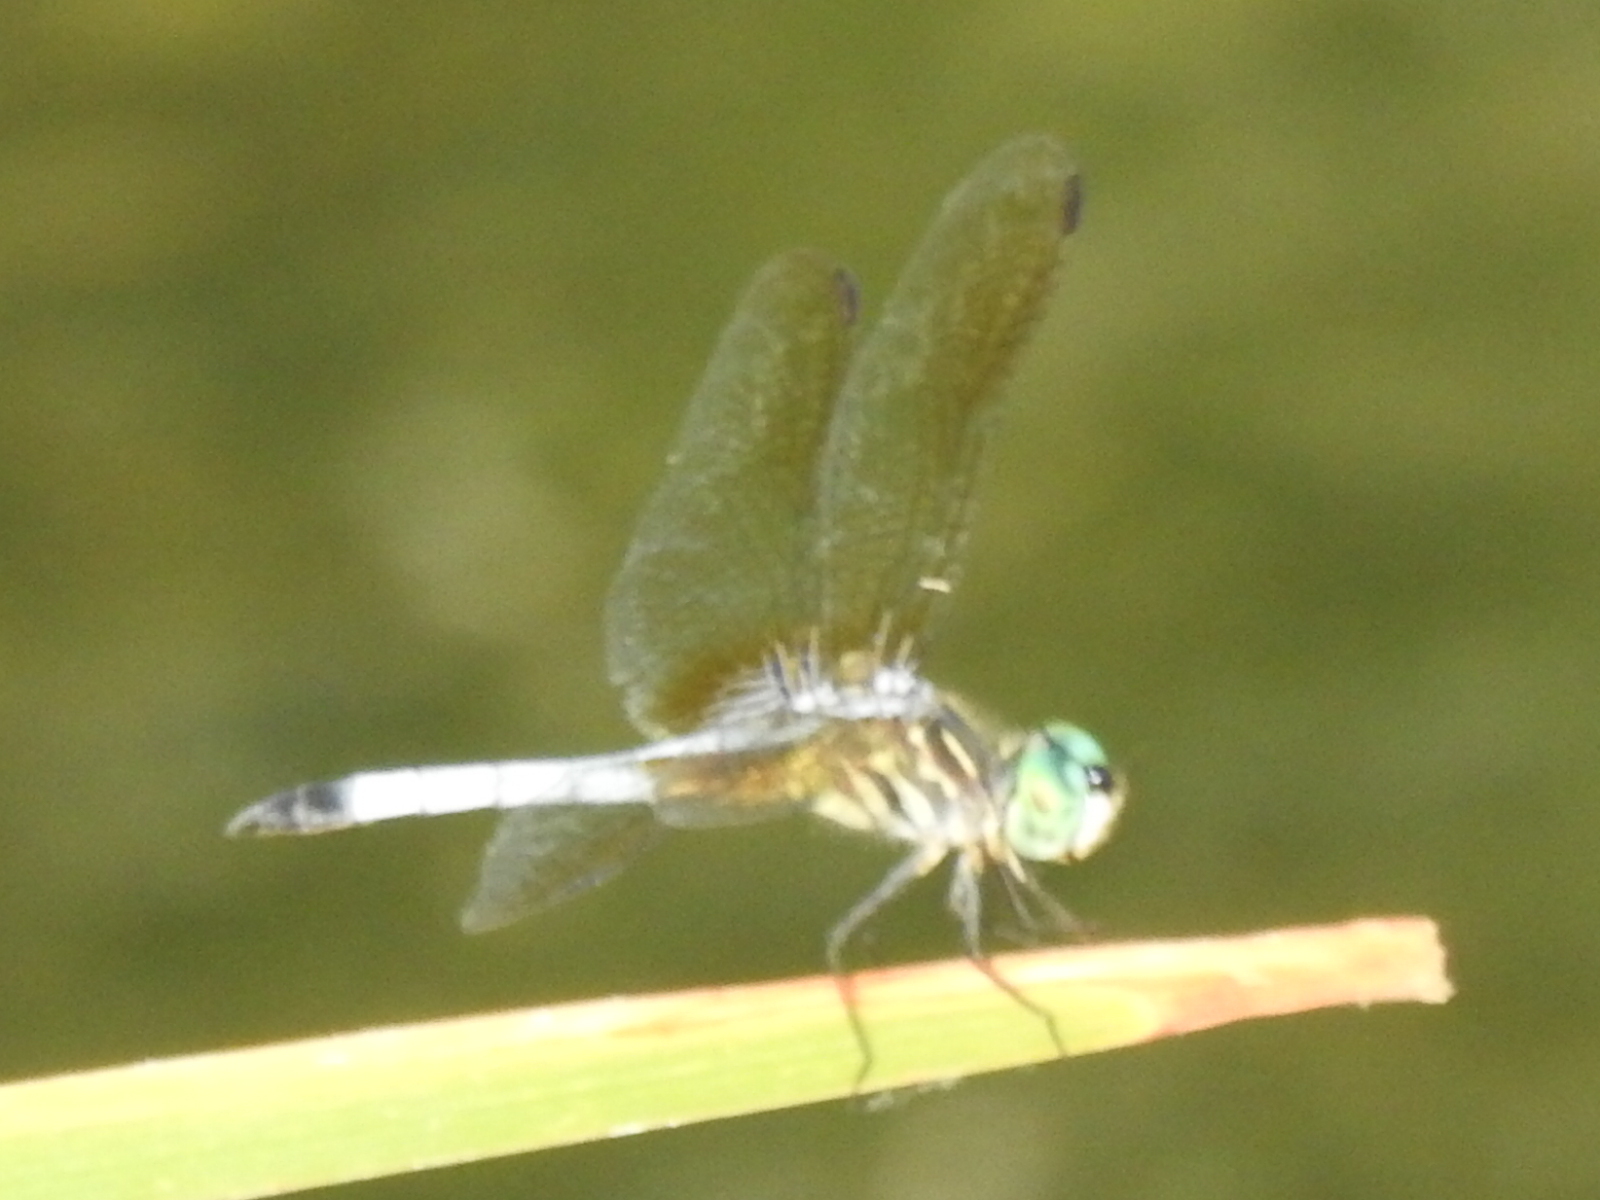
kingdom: Animalia
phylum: Arthropoda
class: Insecta
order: Odonata
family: Libellulidae
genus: Pachydiplax
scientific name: Pachydiplax longipennis
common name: Blue dasher
